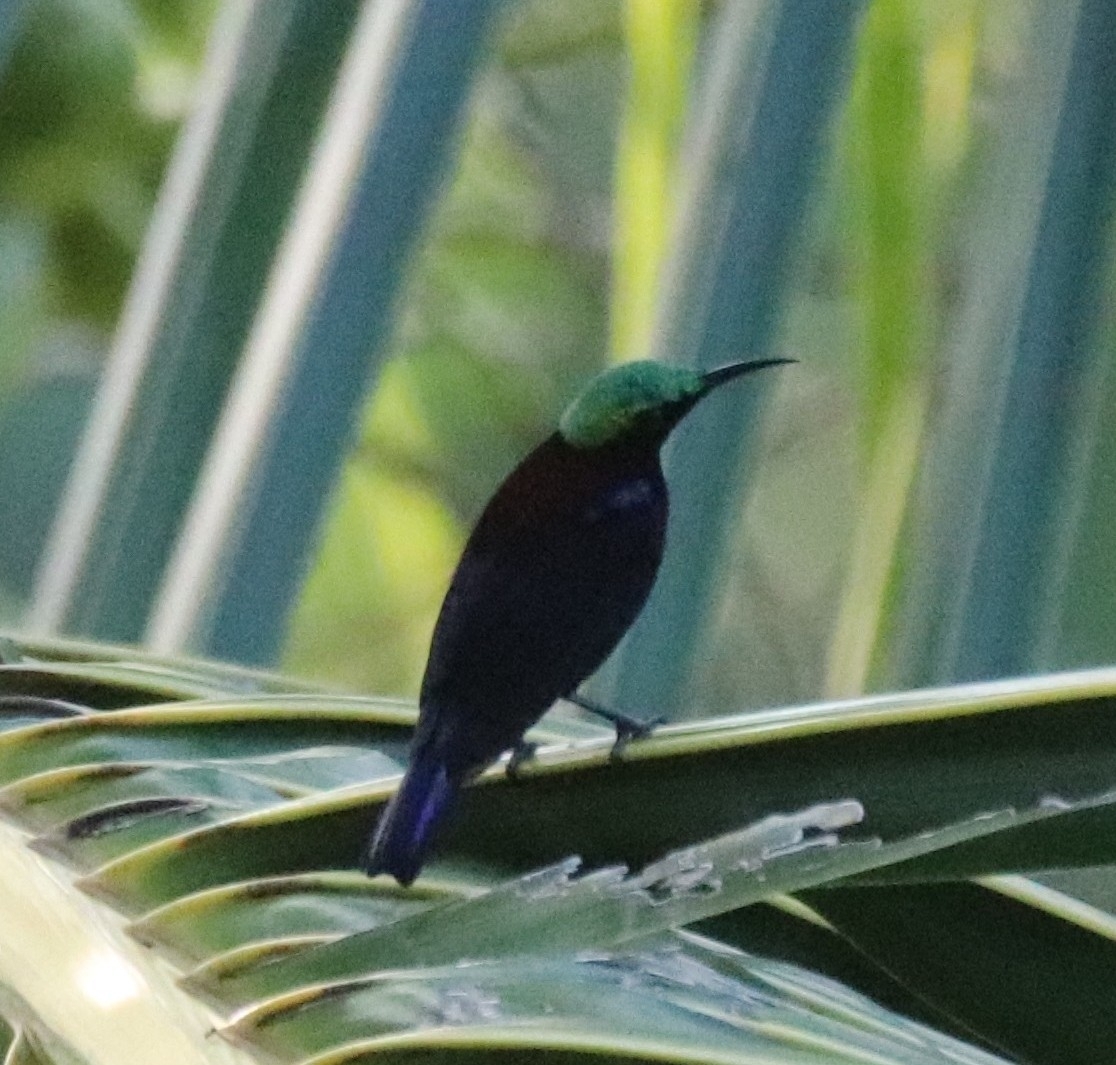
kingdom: Animalia
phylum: Chordata
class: Aves
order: Passeriformes
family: Nectariniidae
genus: Leptocoma
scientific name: Leptocoma sericea
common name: Black sunbird
